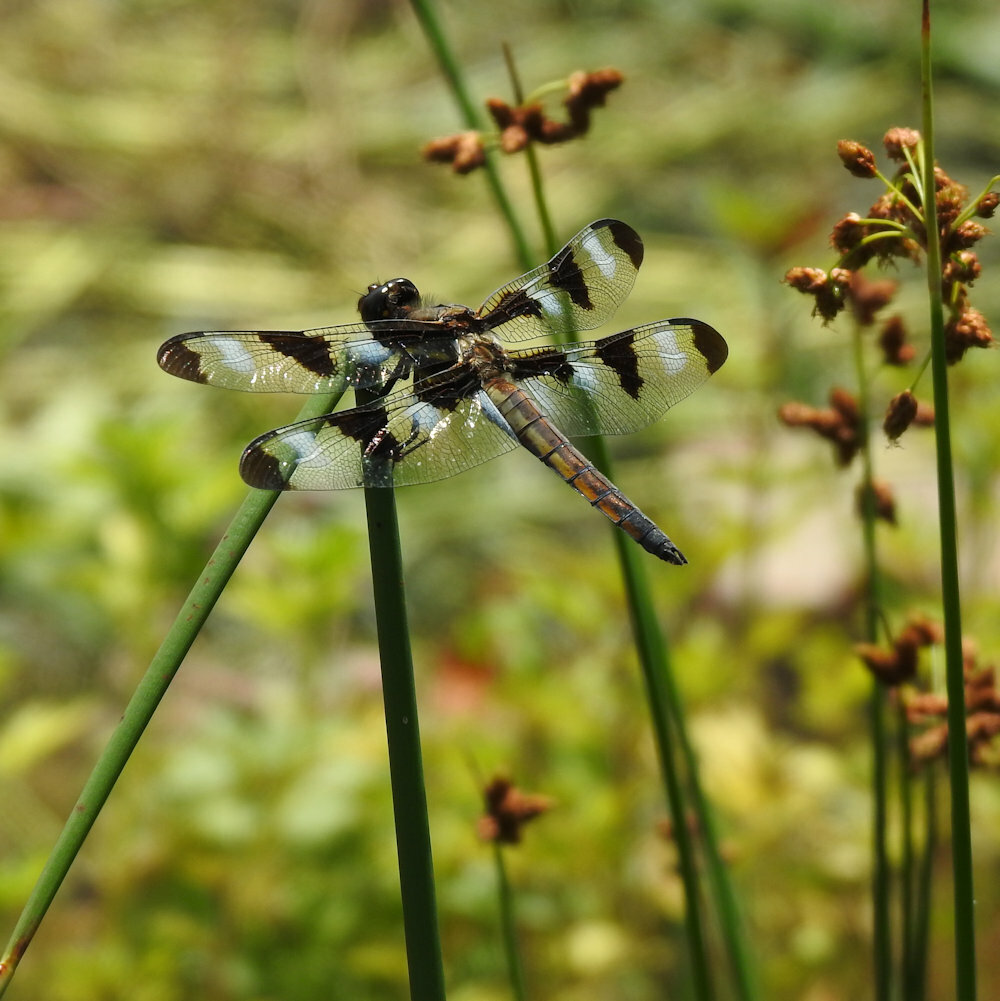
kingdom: Animalia
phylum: Arthropoda
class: Insecta
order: Odonata
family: Libellulidae
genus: Libellula
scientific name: Libellula pulchella
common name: Twelve-spotted skimmer
